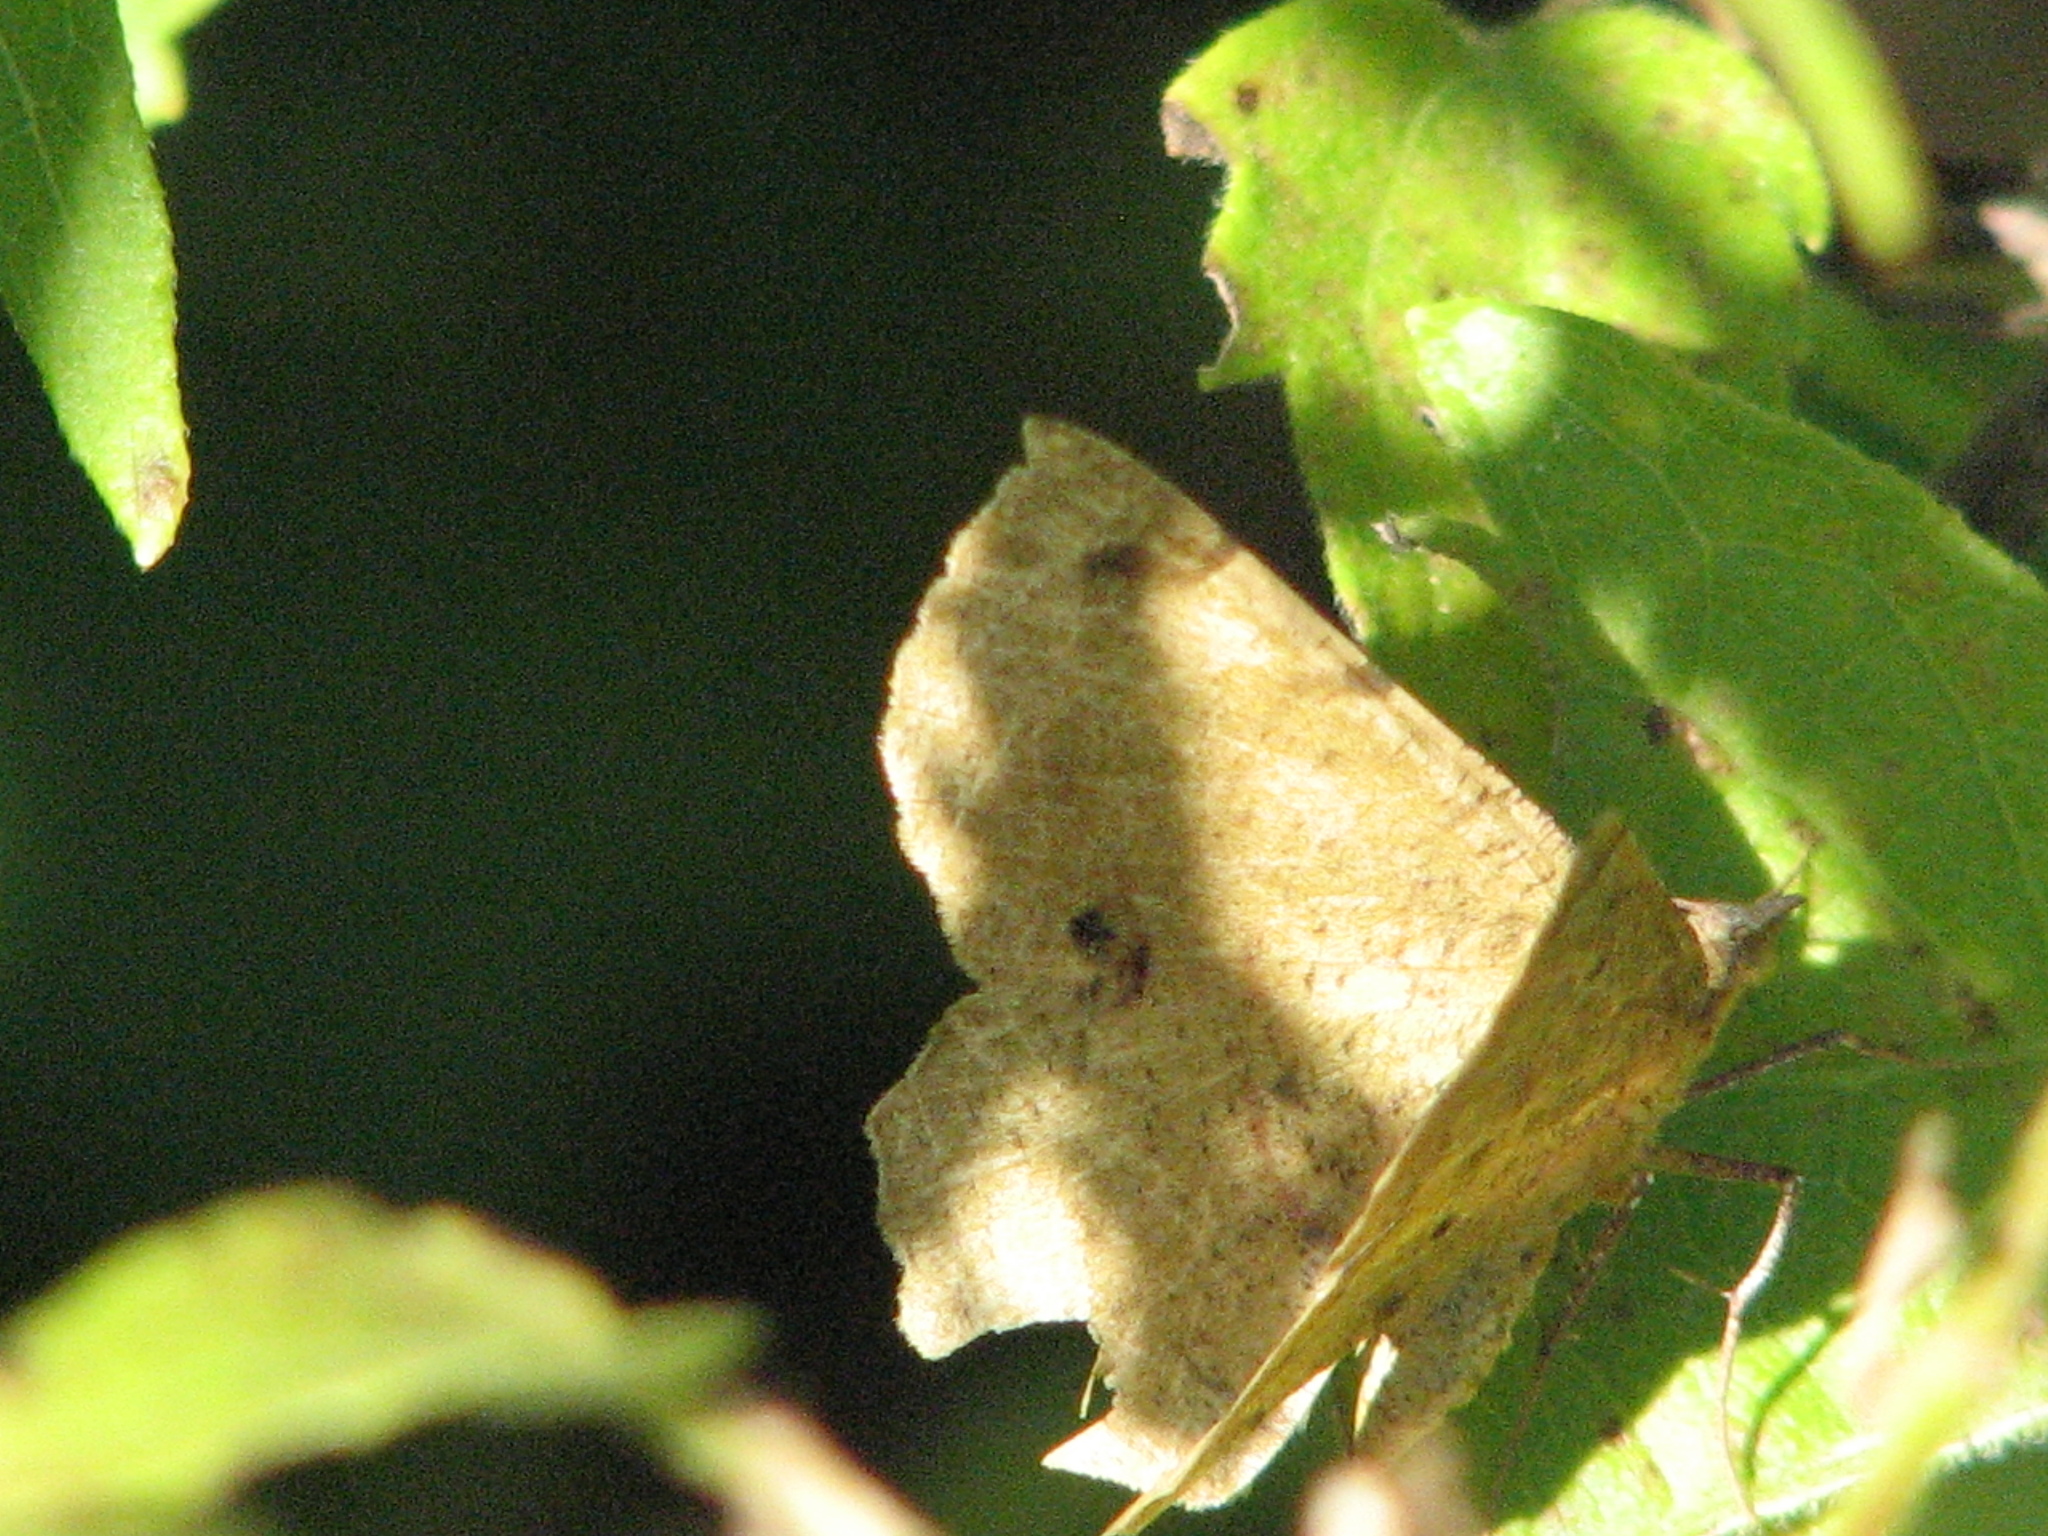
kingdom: Animalia
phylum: Arthropoda
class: Insecta
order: Lepidoptera
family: Geometridae
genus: Erastria
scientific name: Erastria decrepitaria
